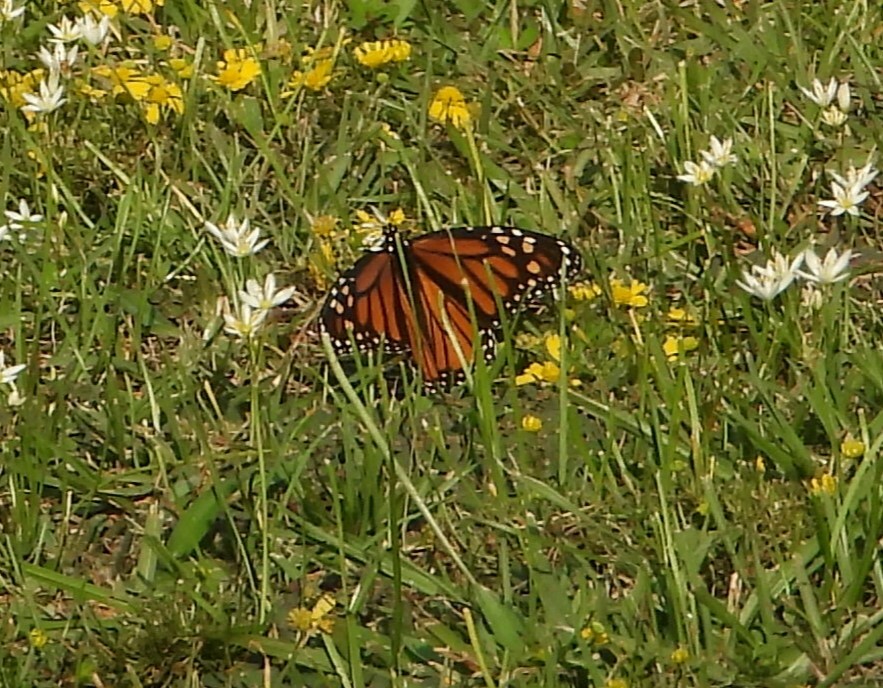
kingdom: Animalia
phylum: Arthropoda
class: Insecta
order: Lepidoptera
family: Nymphalidae
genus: Danaus
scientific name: Danaus plexippus
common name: Monarch
